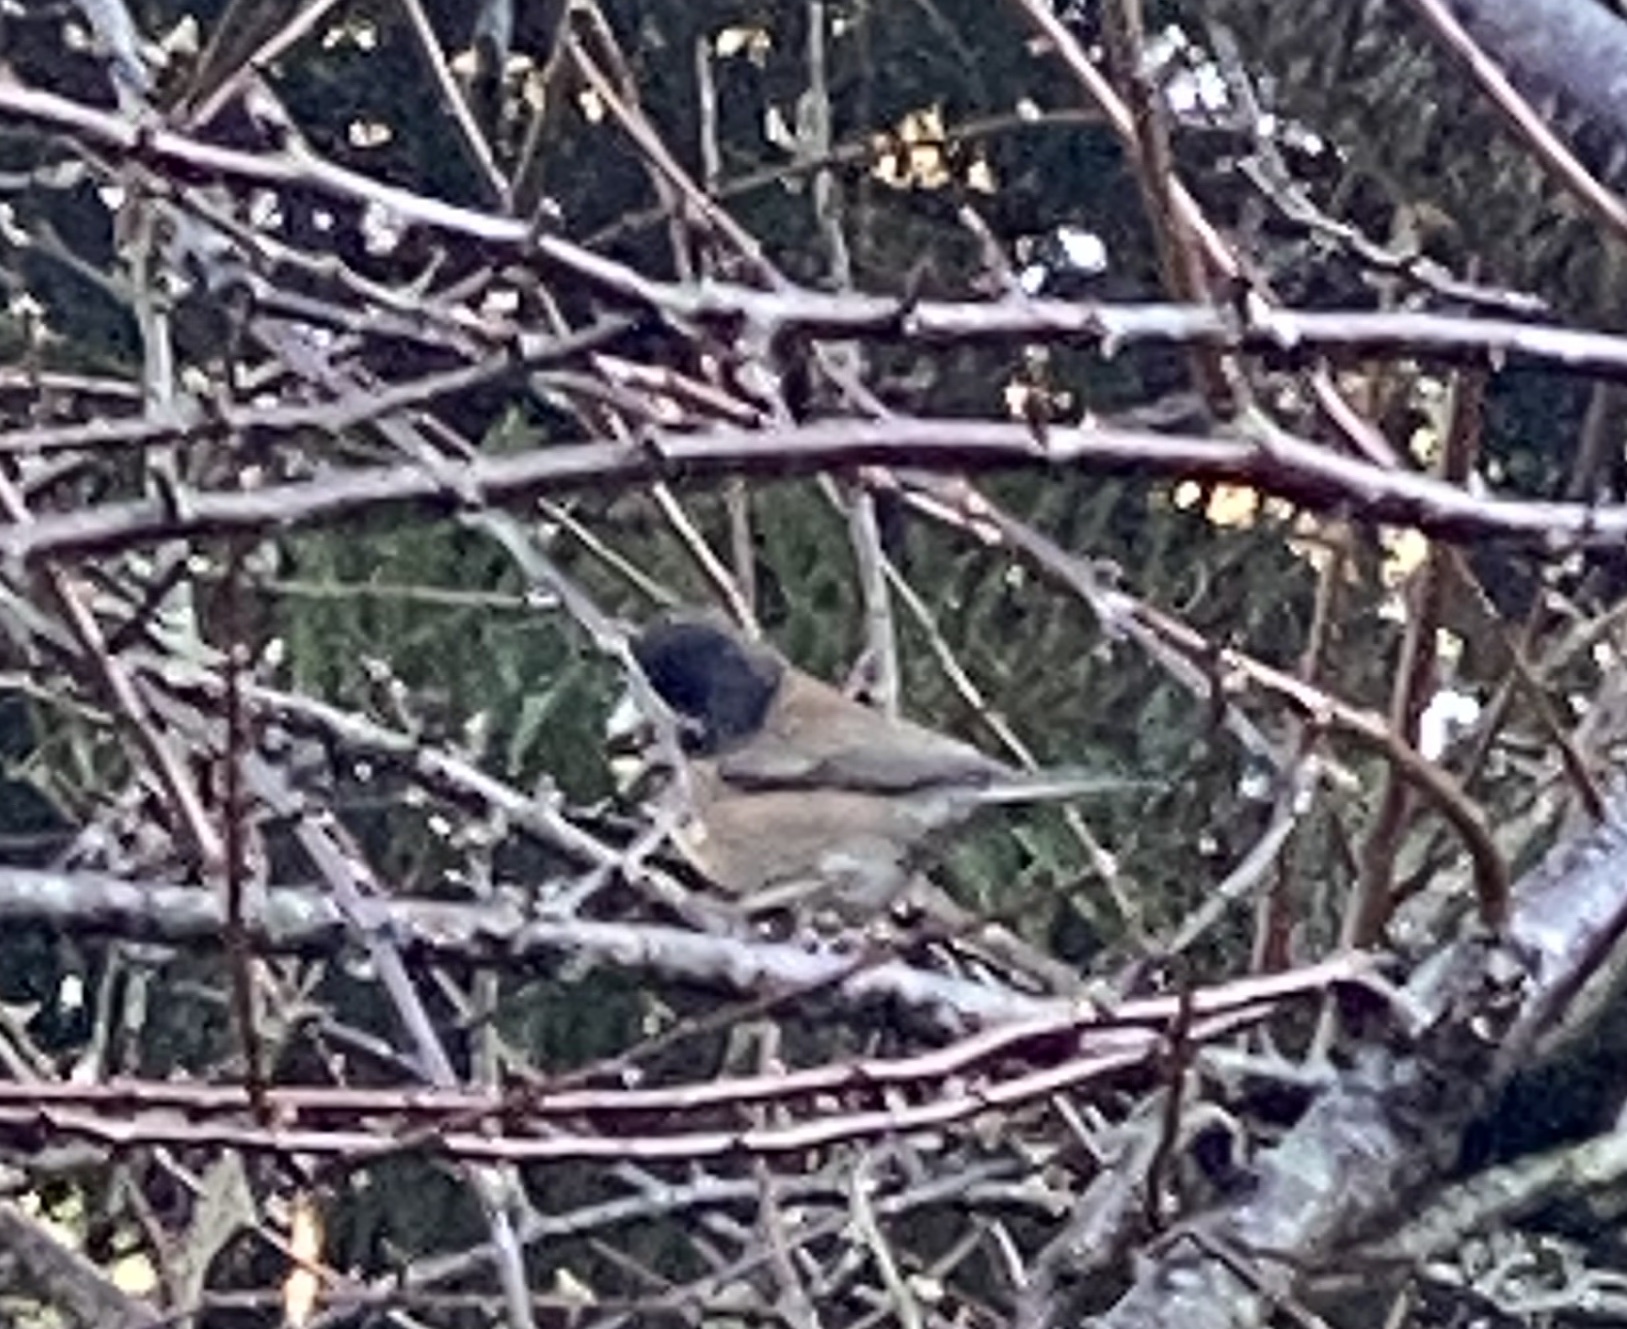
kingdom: Animalia
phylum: Chordata
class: Aves
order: Passeriformes
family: Passerellidae
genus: Junco
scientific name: Junco hyemalis
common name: Dark-eyed junco
